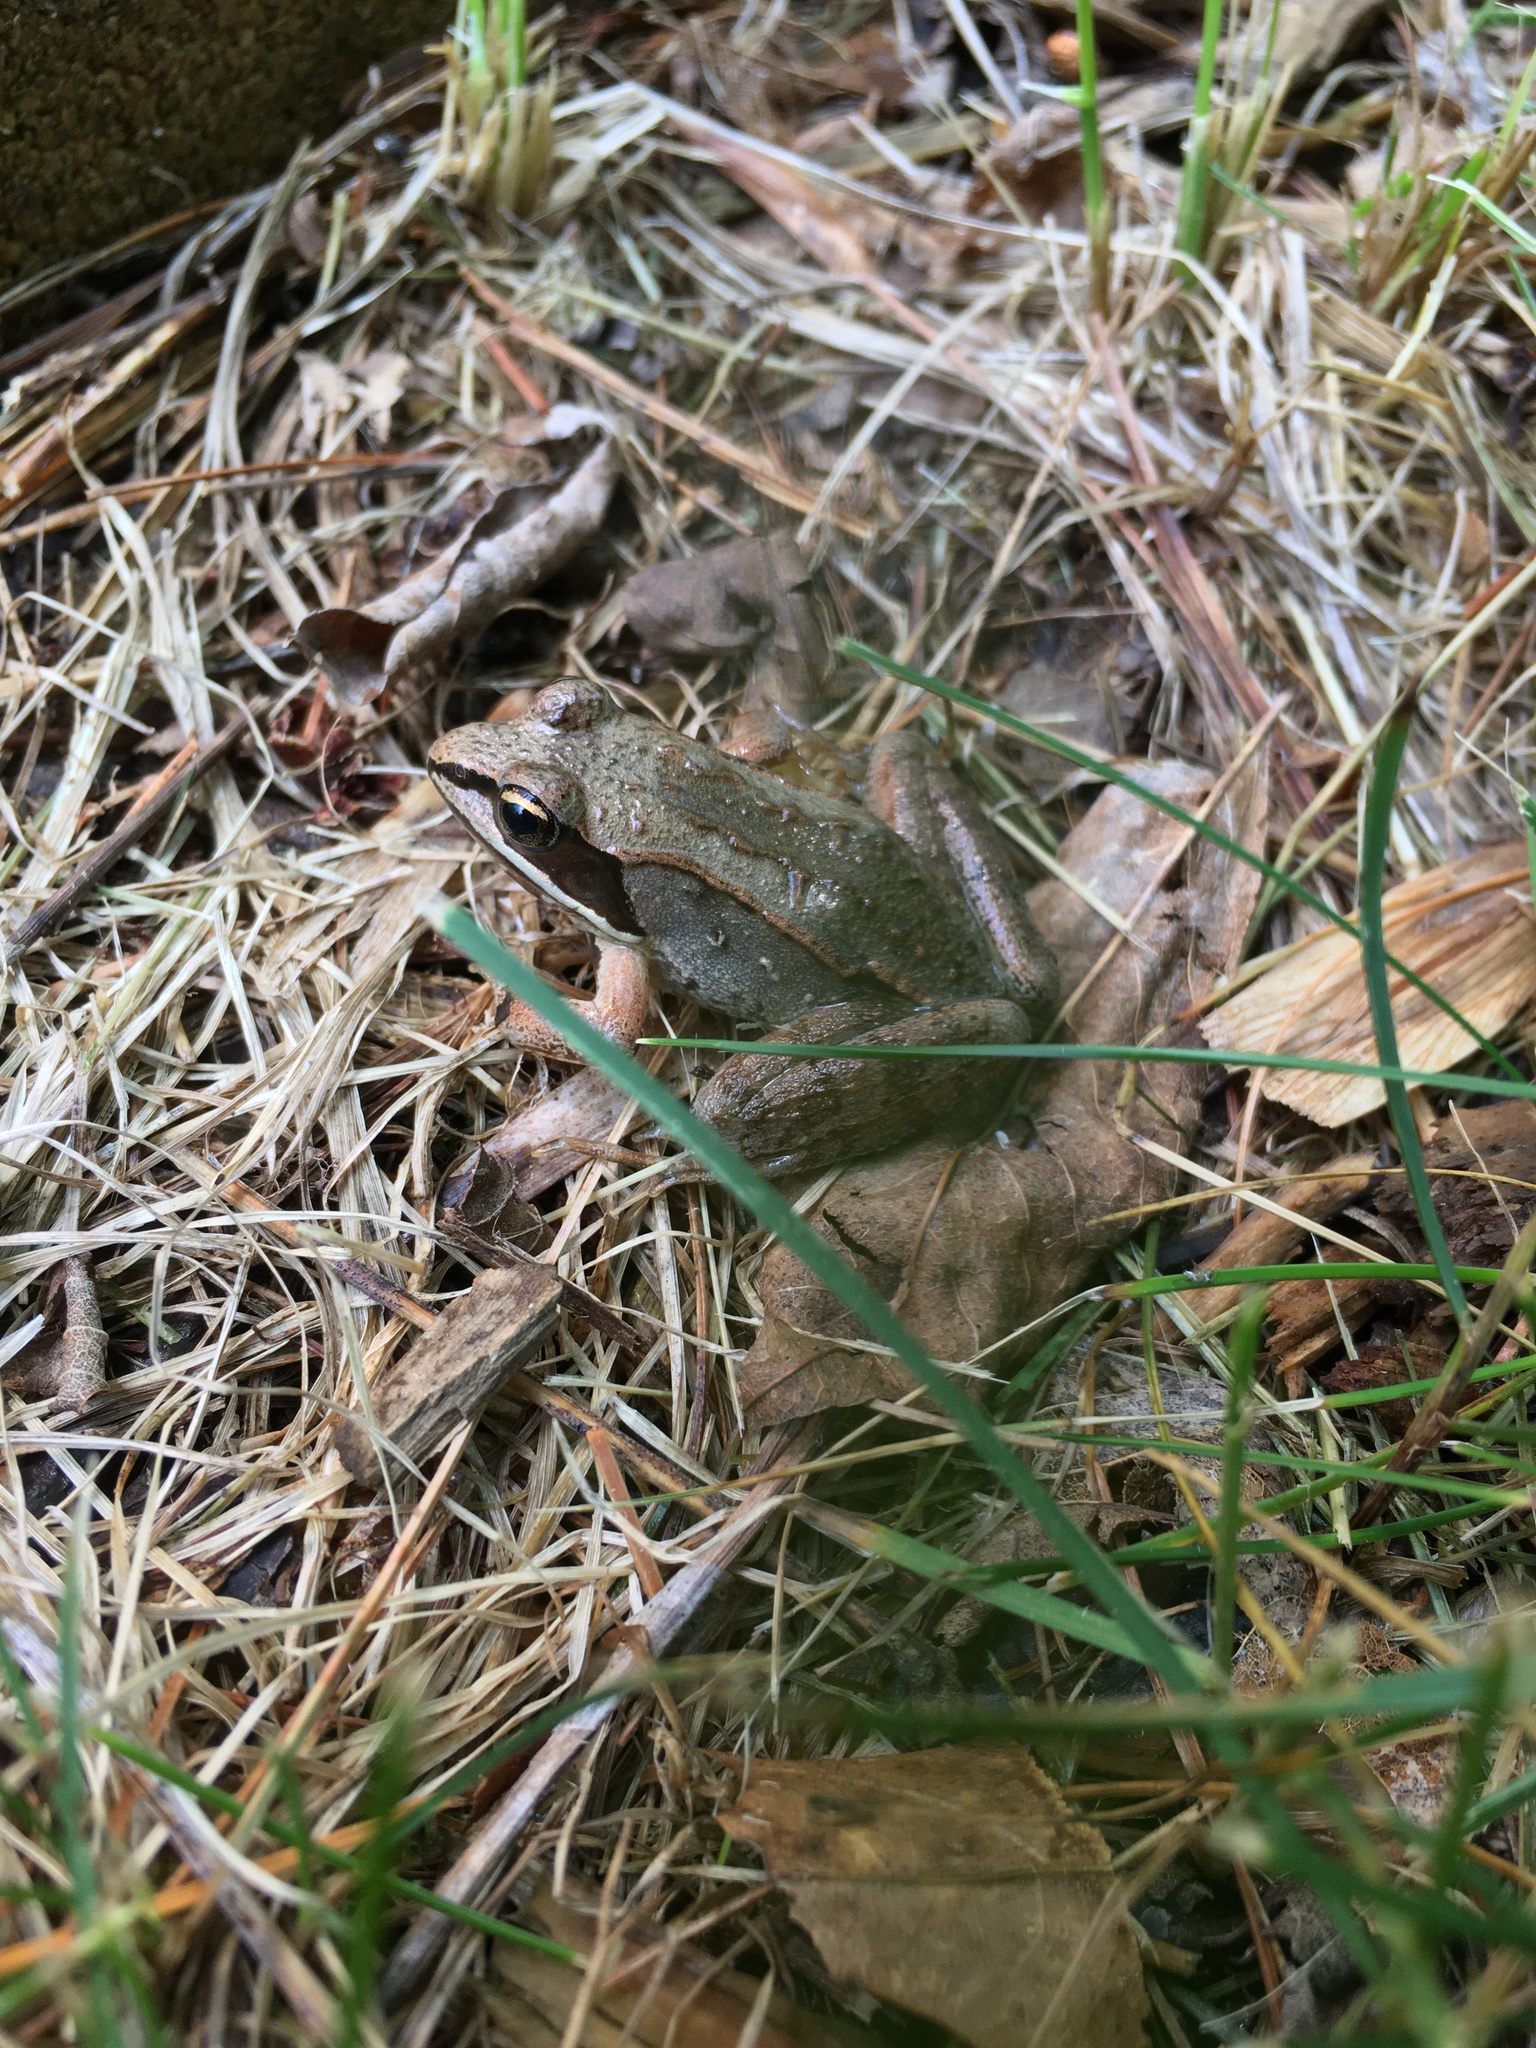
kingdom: Animalia
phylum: Chordata
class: Amphibia
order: Anura
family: Ranidae
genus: Lithobates
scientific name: Lithobates sylvaticus
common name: Wood frog
